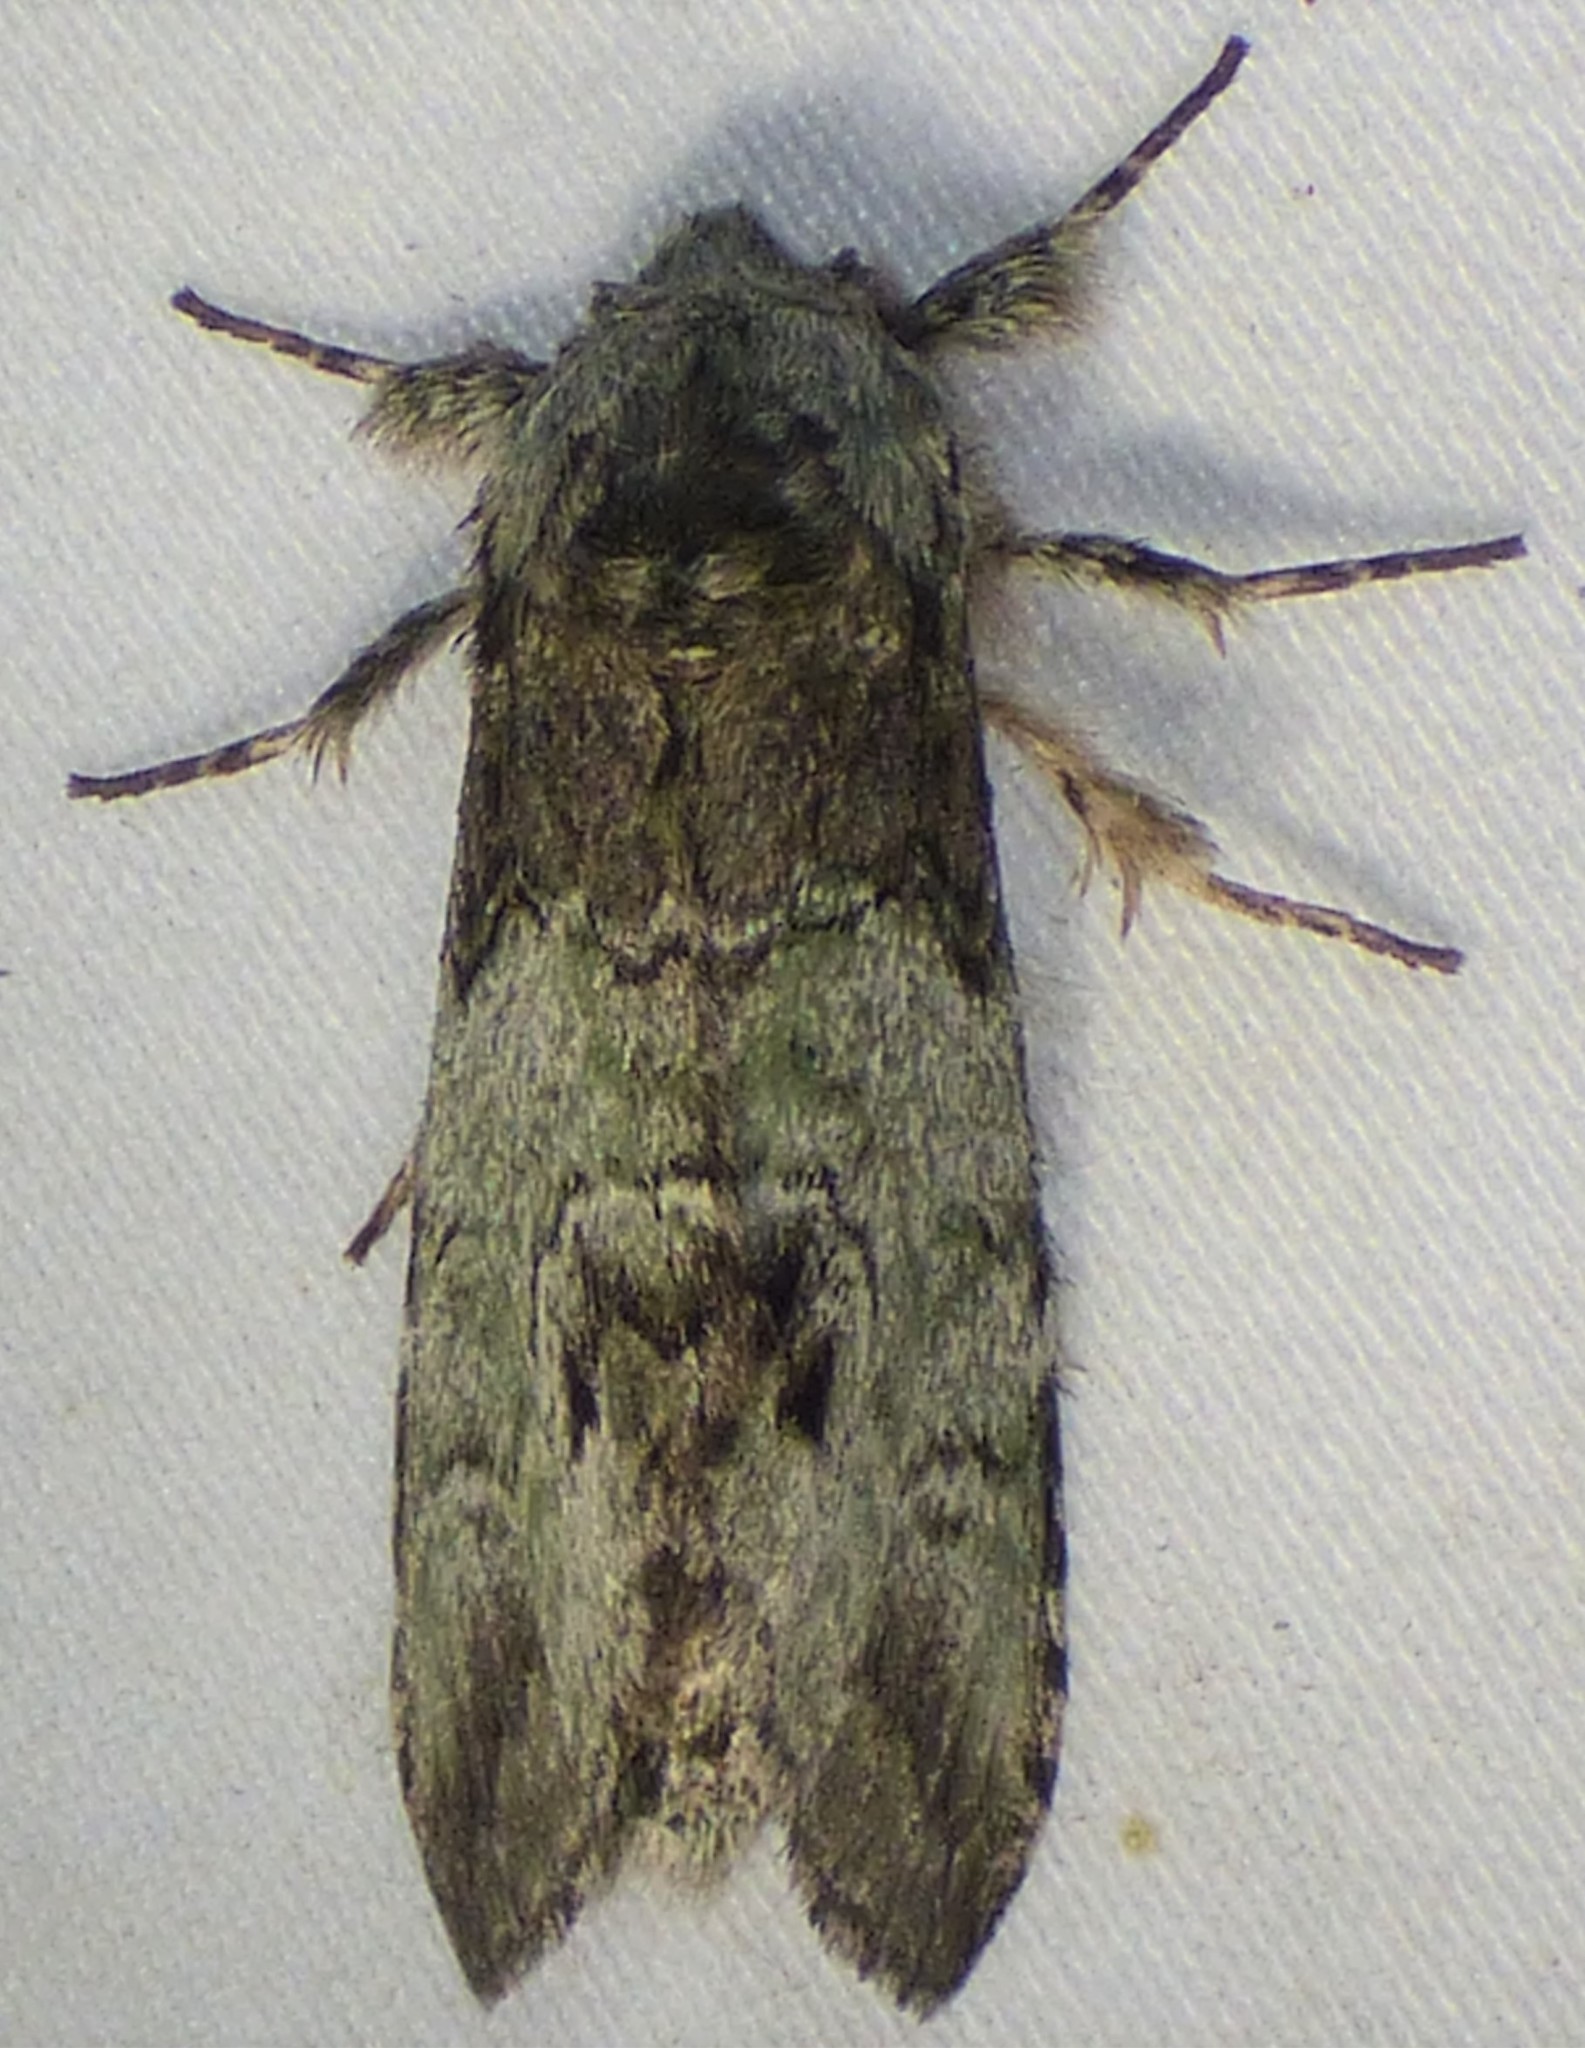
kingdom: Animalia
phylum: Arthropoda
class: Insecta
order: Lepidoptera
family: Notodontidae
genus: Macrurocampa
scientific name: Macrurocampa marthesia
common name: Mottled prominent
